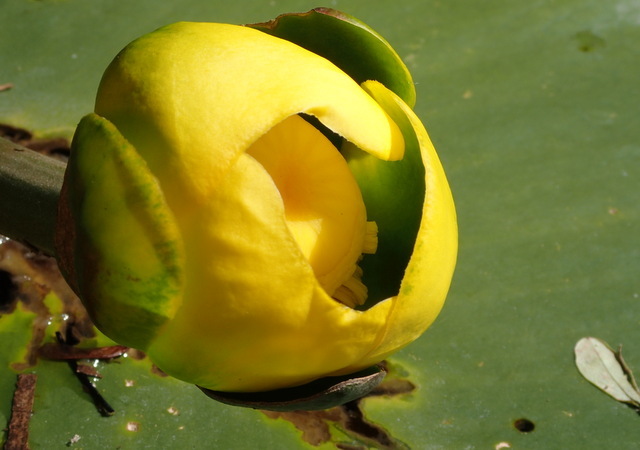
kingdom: Plantae
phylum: Tracheophyta
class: Magnoliopsida
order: Nymphaeales
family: Nymphaeaceae
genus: Nuphar
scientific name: Nuphar advena
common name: Spatter-dock
